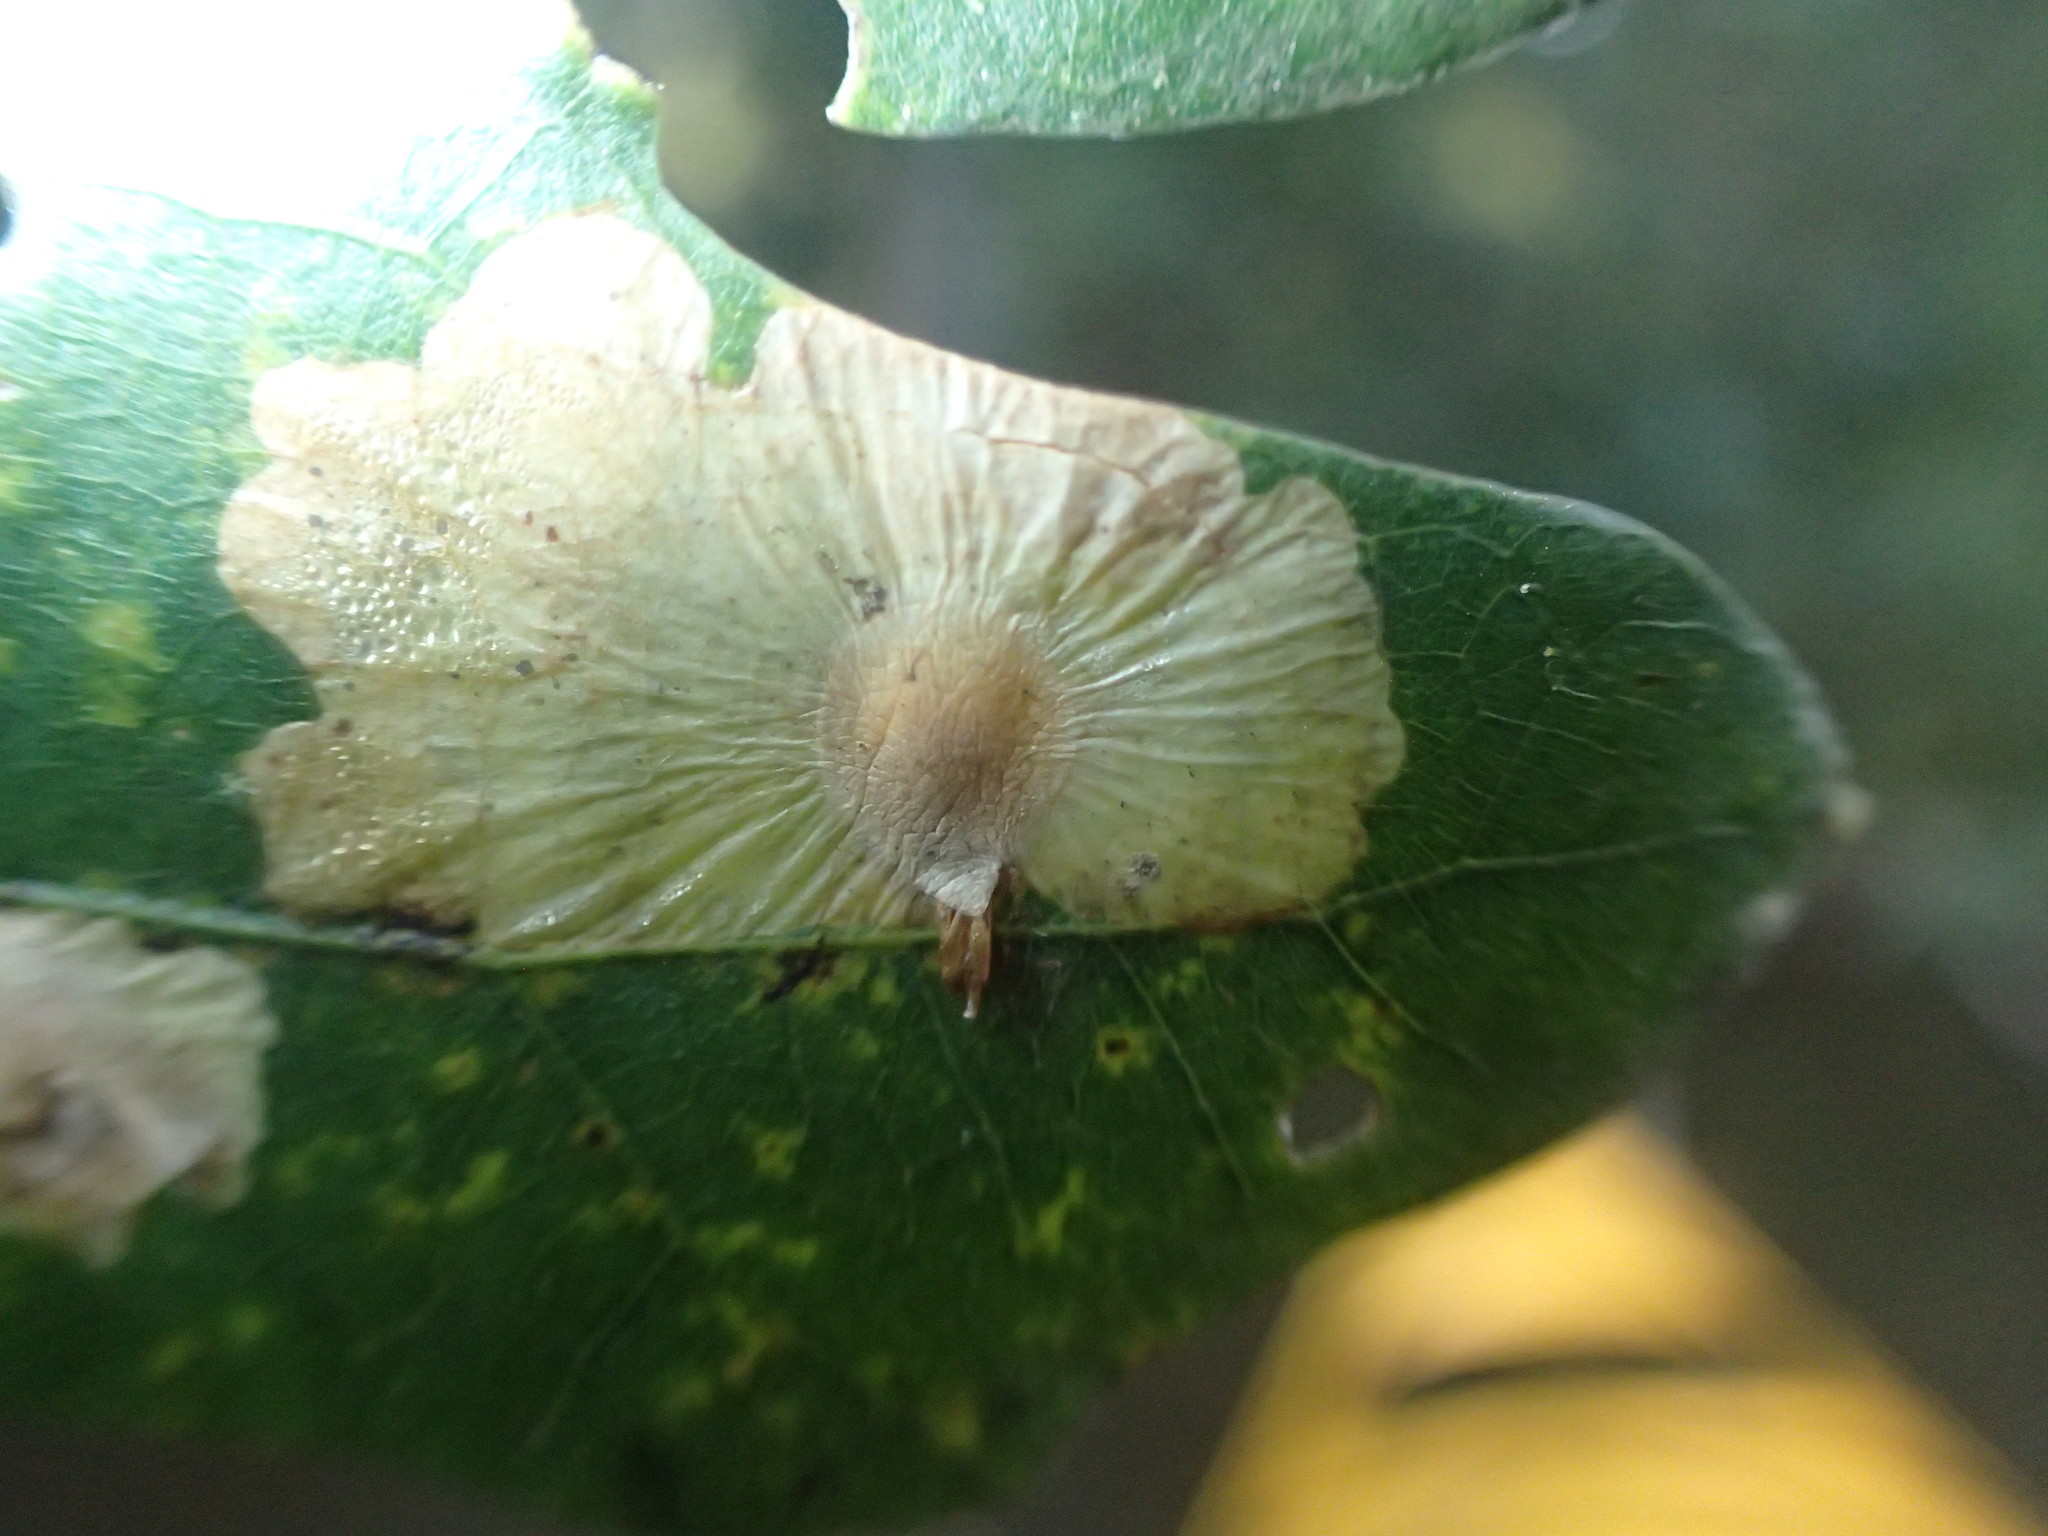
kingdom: Animalia
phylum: Arthropoda
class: Insecta
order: Lepidoptera
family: Tischeriidae
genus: Tischeria
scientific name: Tischeria quercitella
